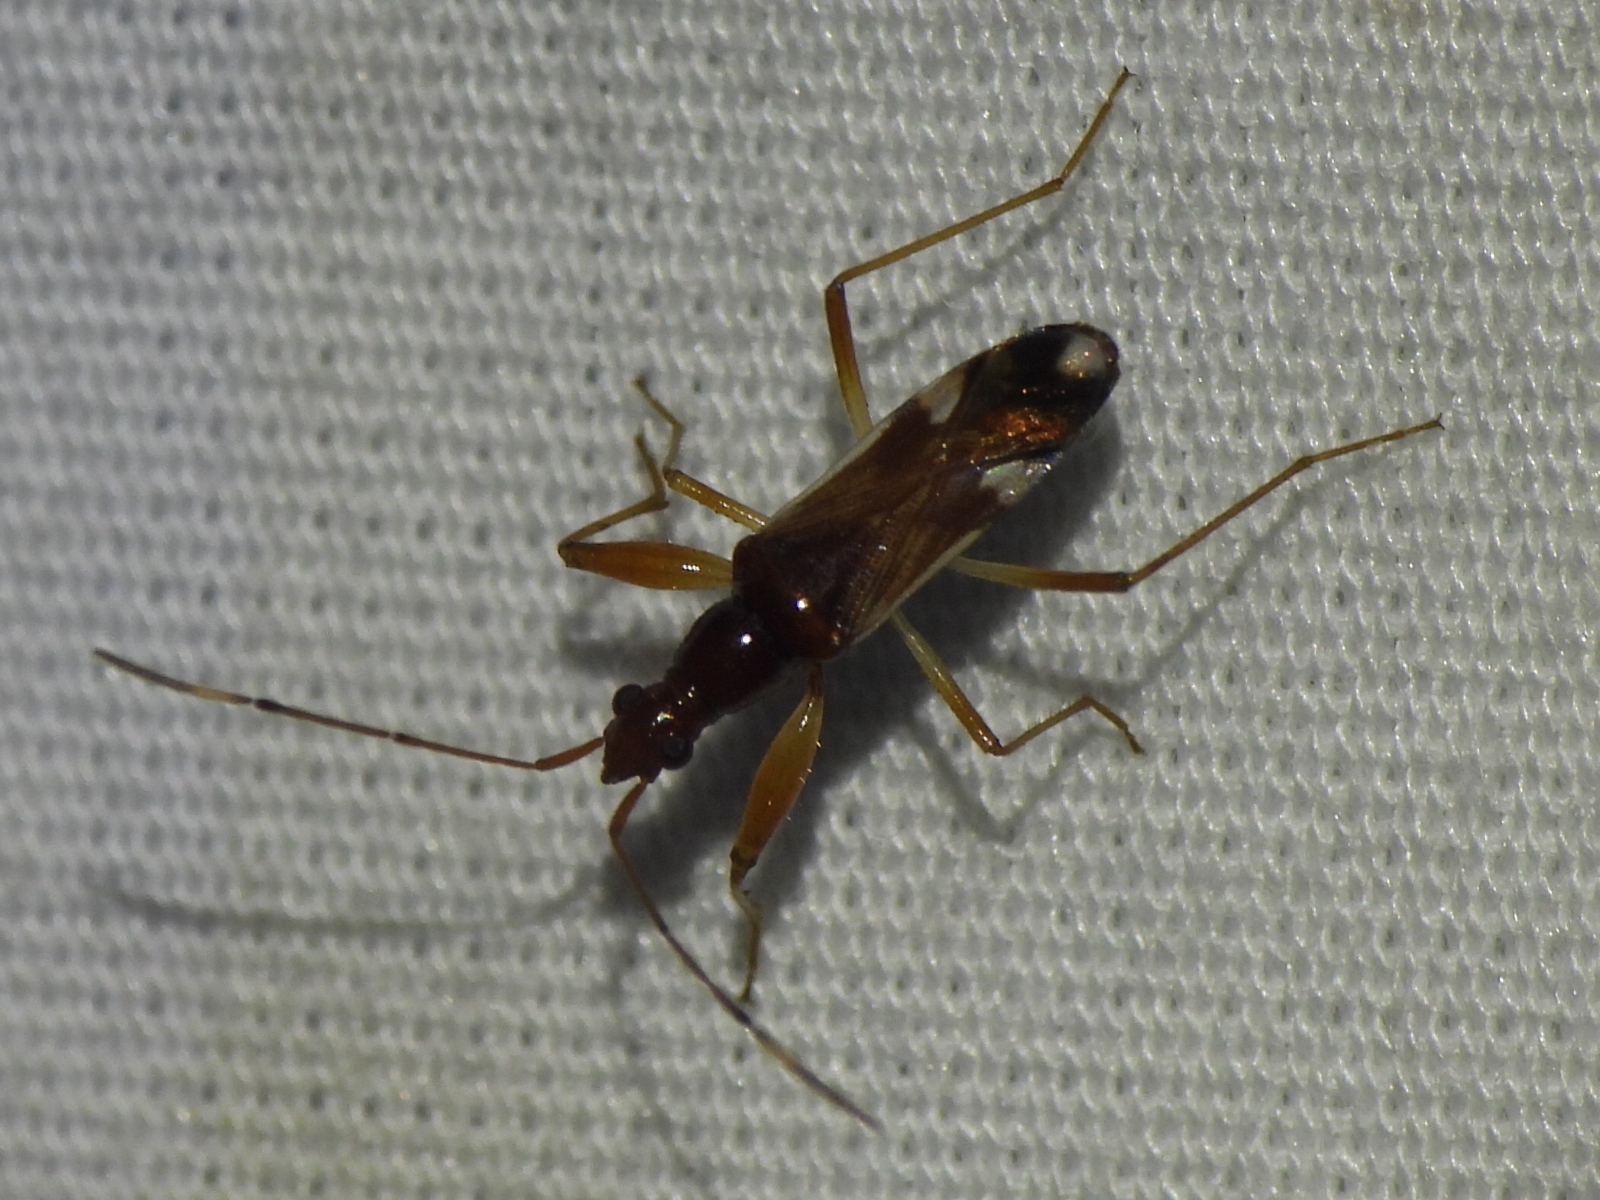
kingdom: Animalia
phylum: Arthropoda
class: Insecta
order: Hemiptera
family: Rhyparochromidae
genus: Pseudopamera
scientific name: Pseudopamera aurivilliana
